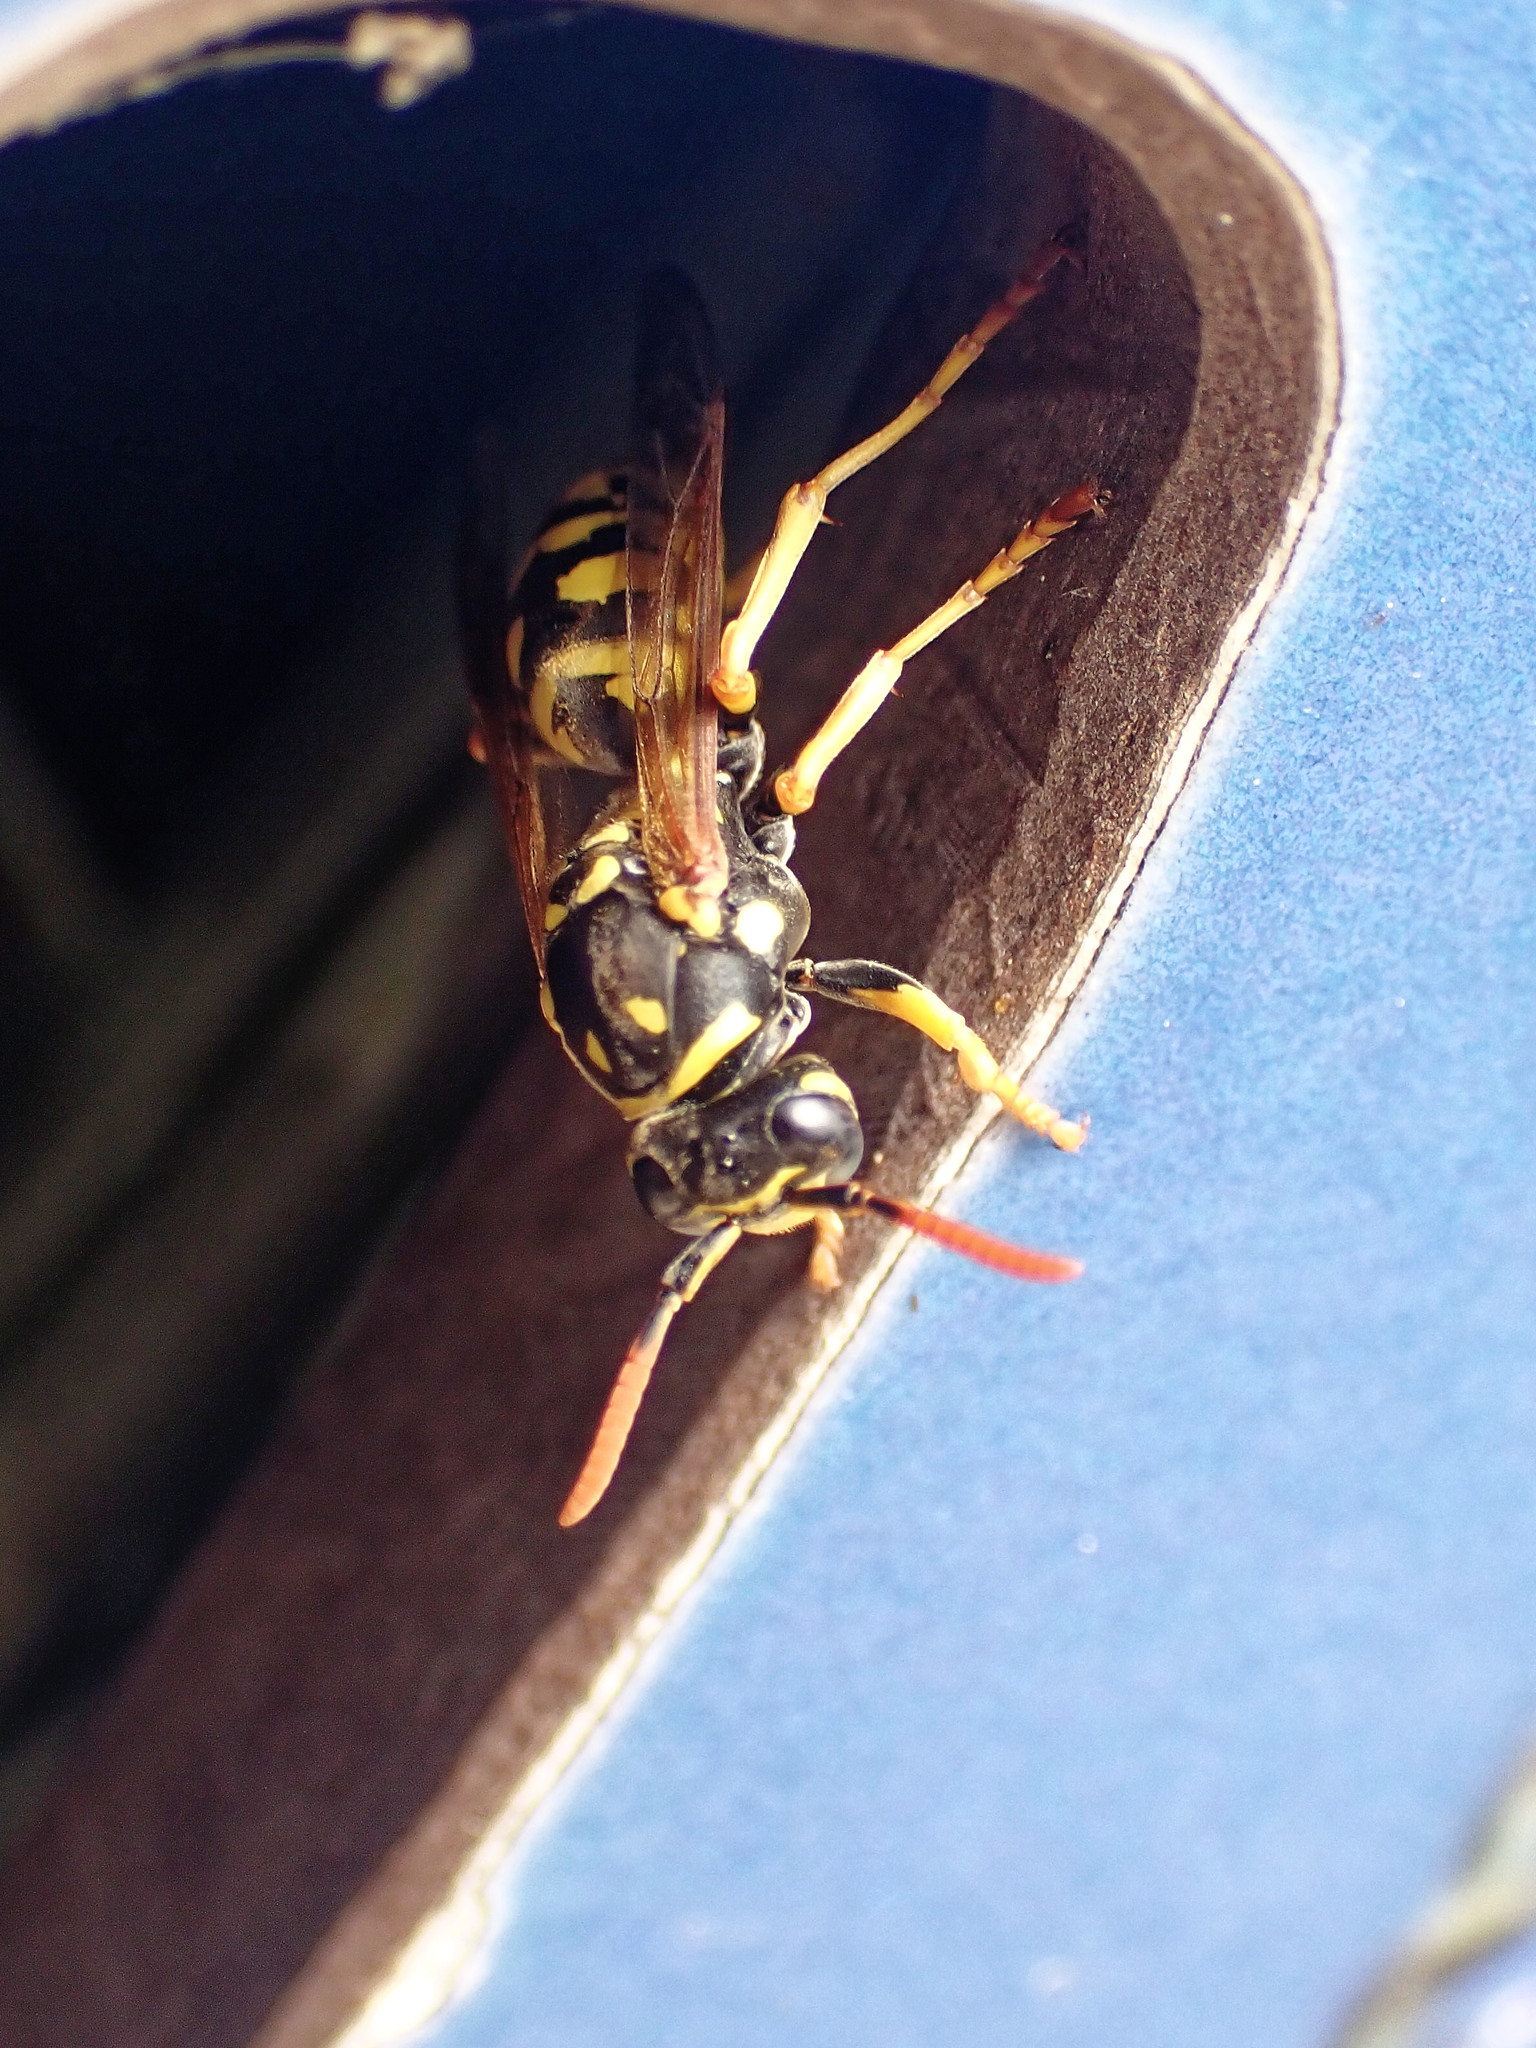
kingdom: Animalia
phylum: Arthropoda
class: Insecta
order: Hymenoptera
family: Eumenidae
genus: Polistes
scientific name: Polistes dominula
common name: Paper wasp
